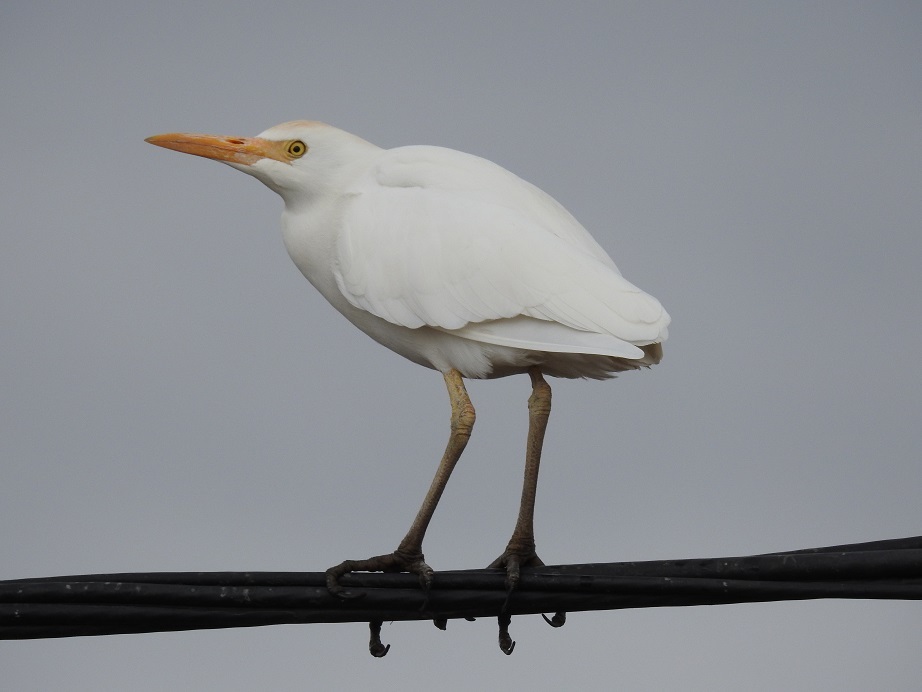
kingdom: Animalia
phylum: Chordata
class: Aves
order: Pelecaniformes
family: Ardeidae
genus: Bubulcus
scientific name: Bubulcus ibis
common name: Cattle egret
